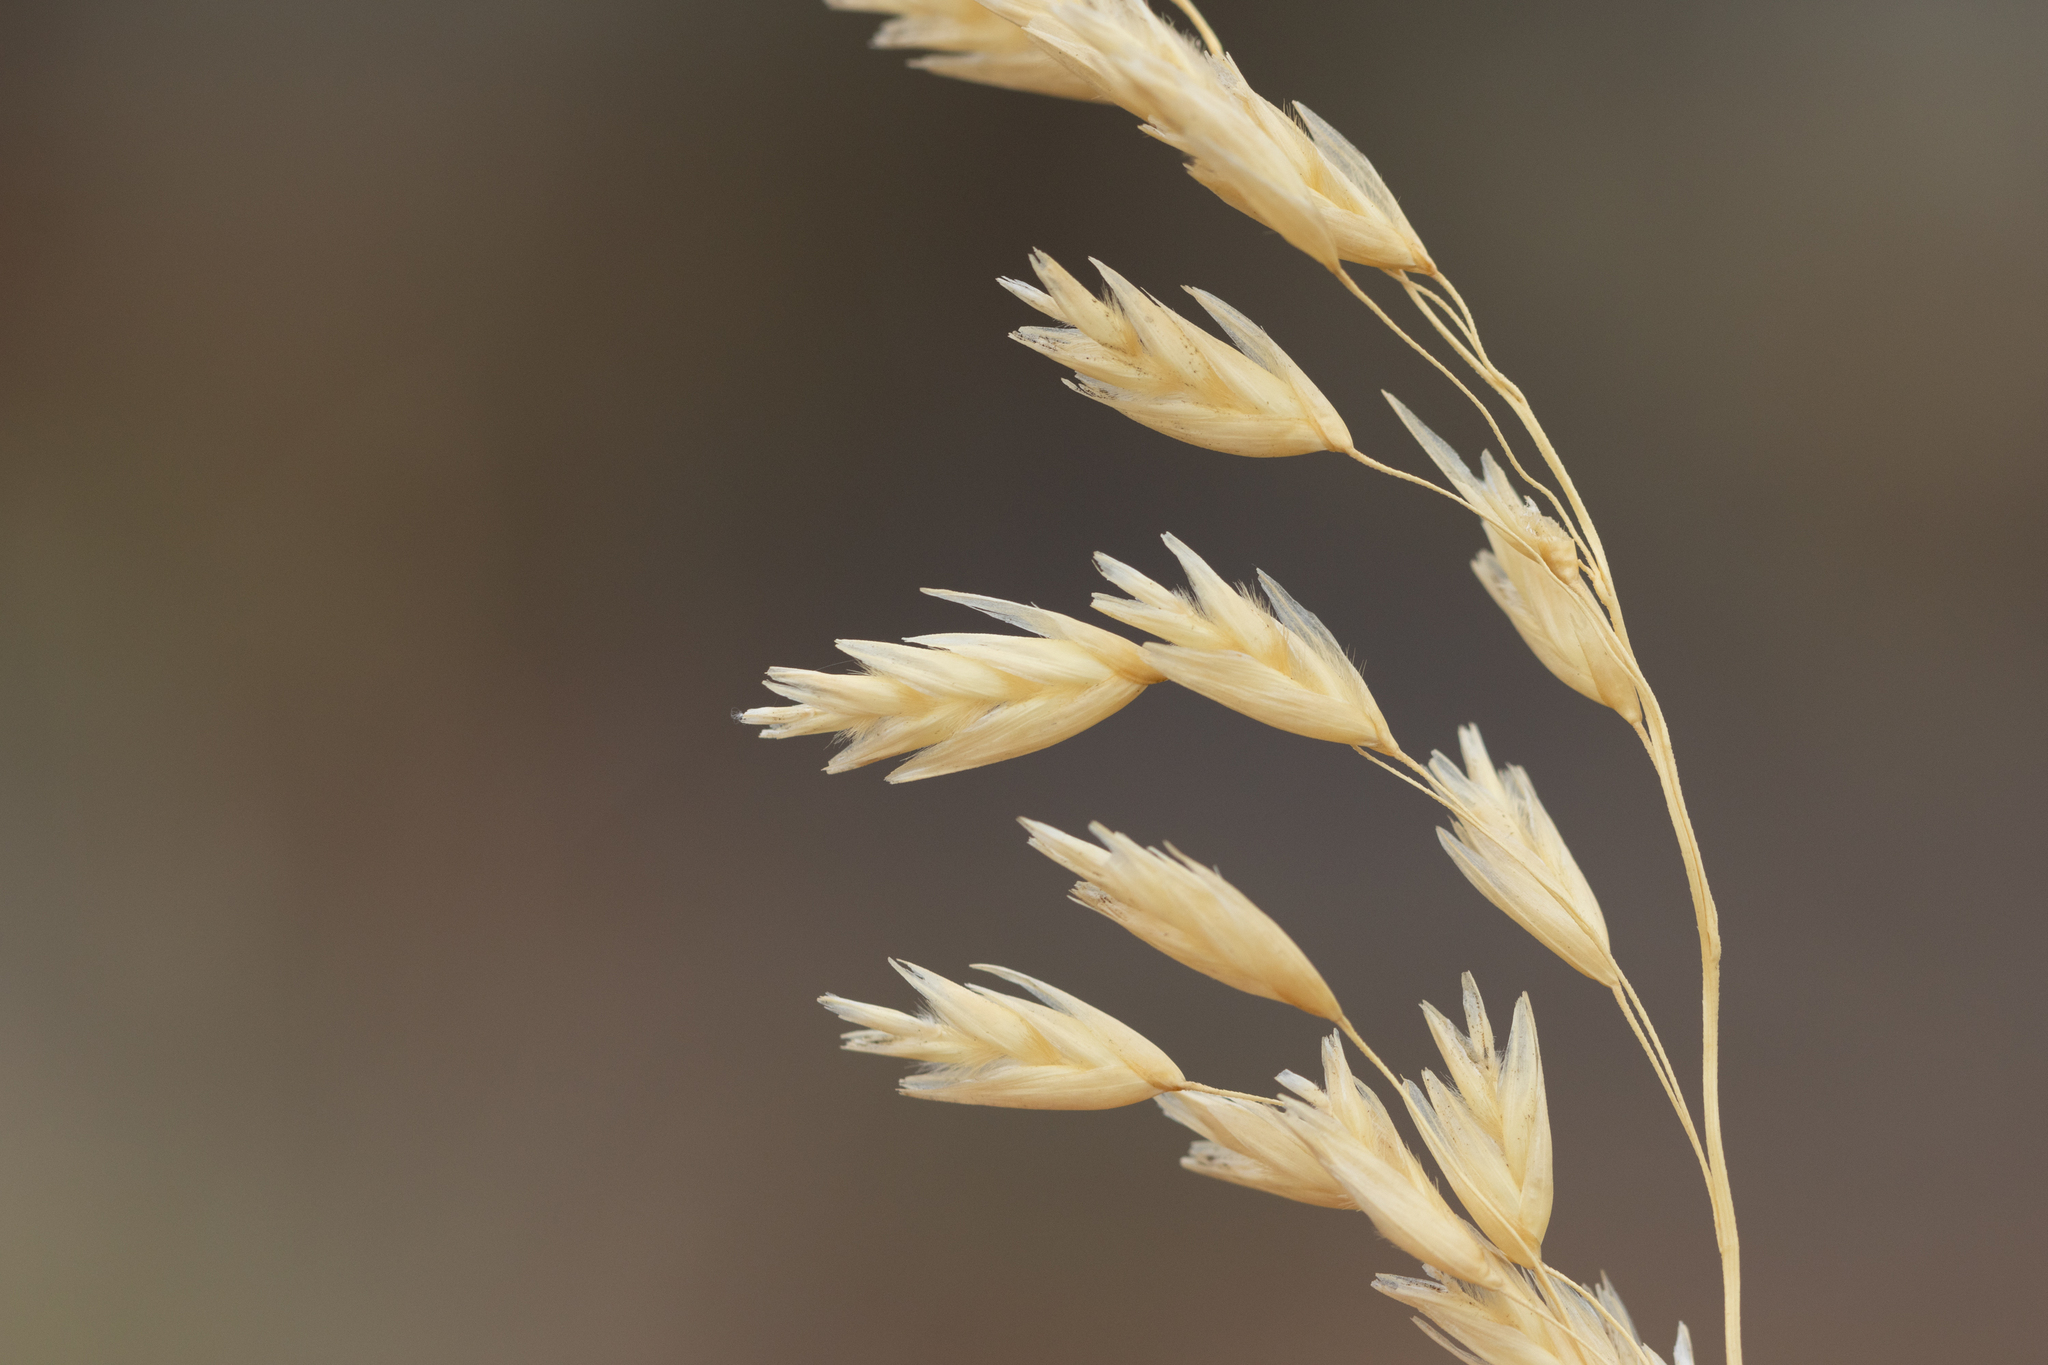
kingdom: Plantae
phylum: Tracheophyta
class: Liliopsida
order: Poales
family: Poaceae
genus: Triodia
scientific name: Triodia scariosa
